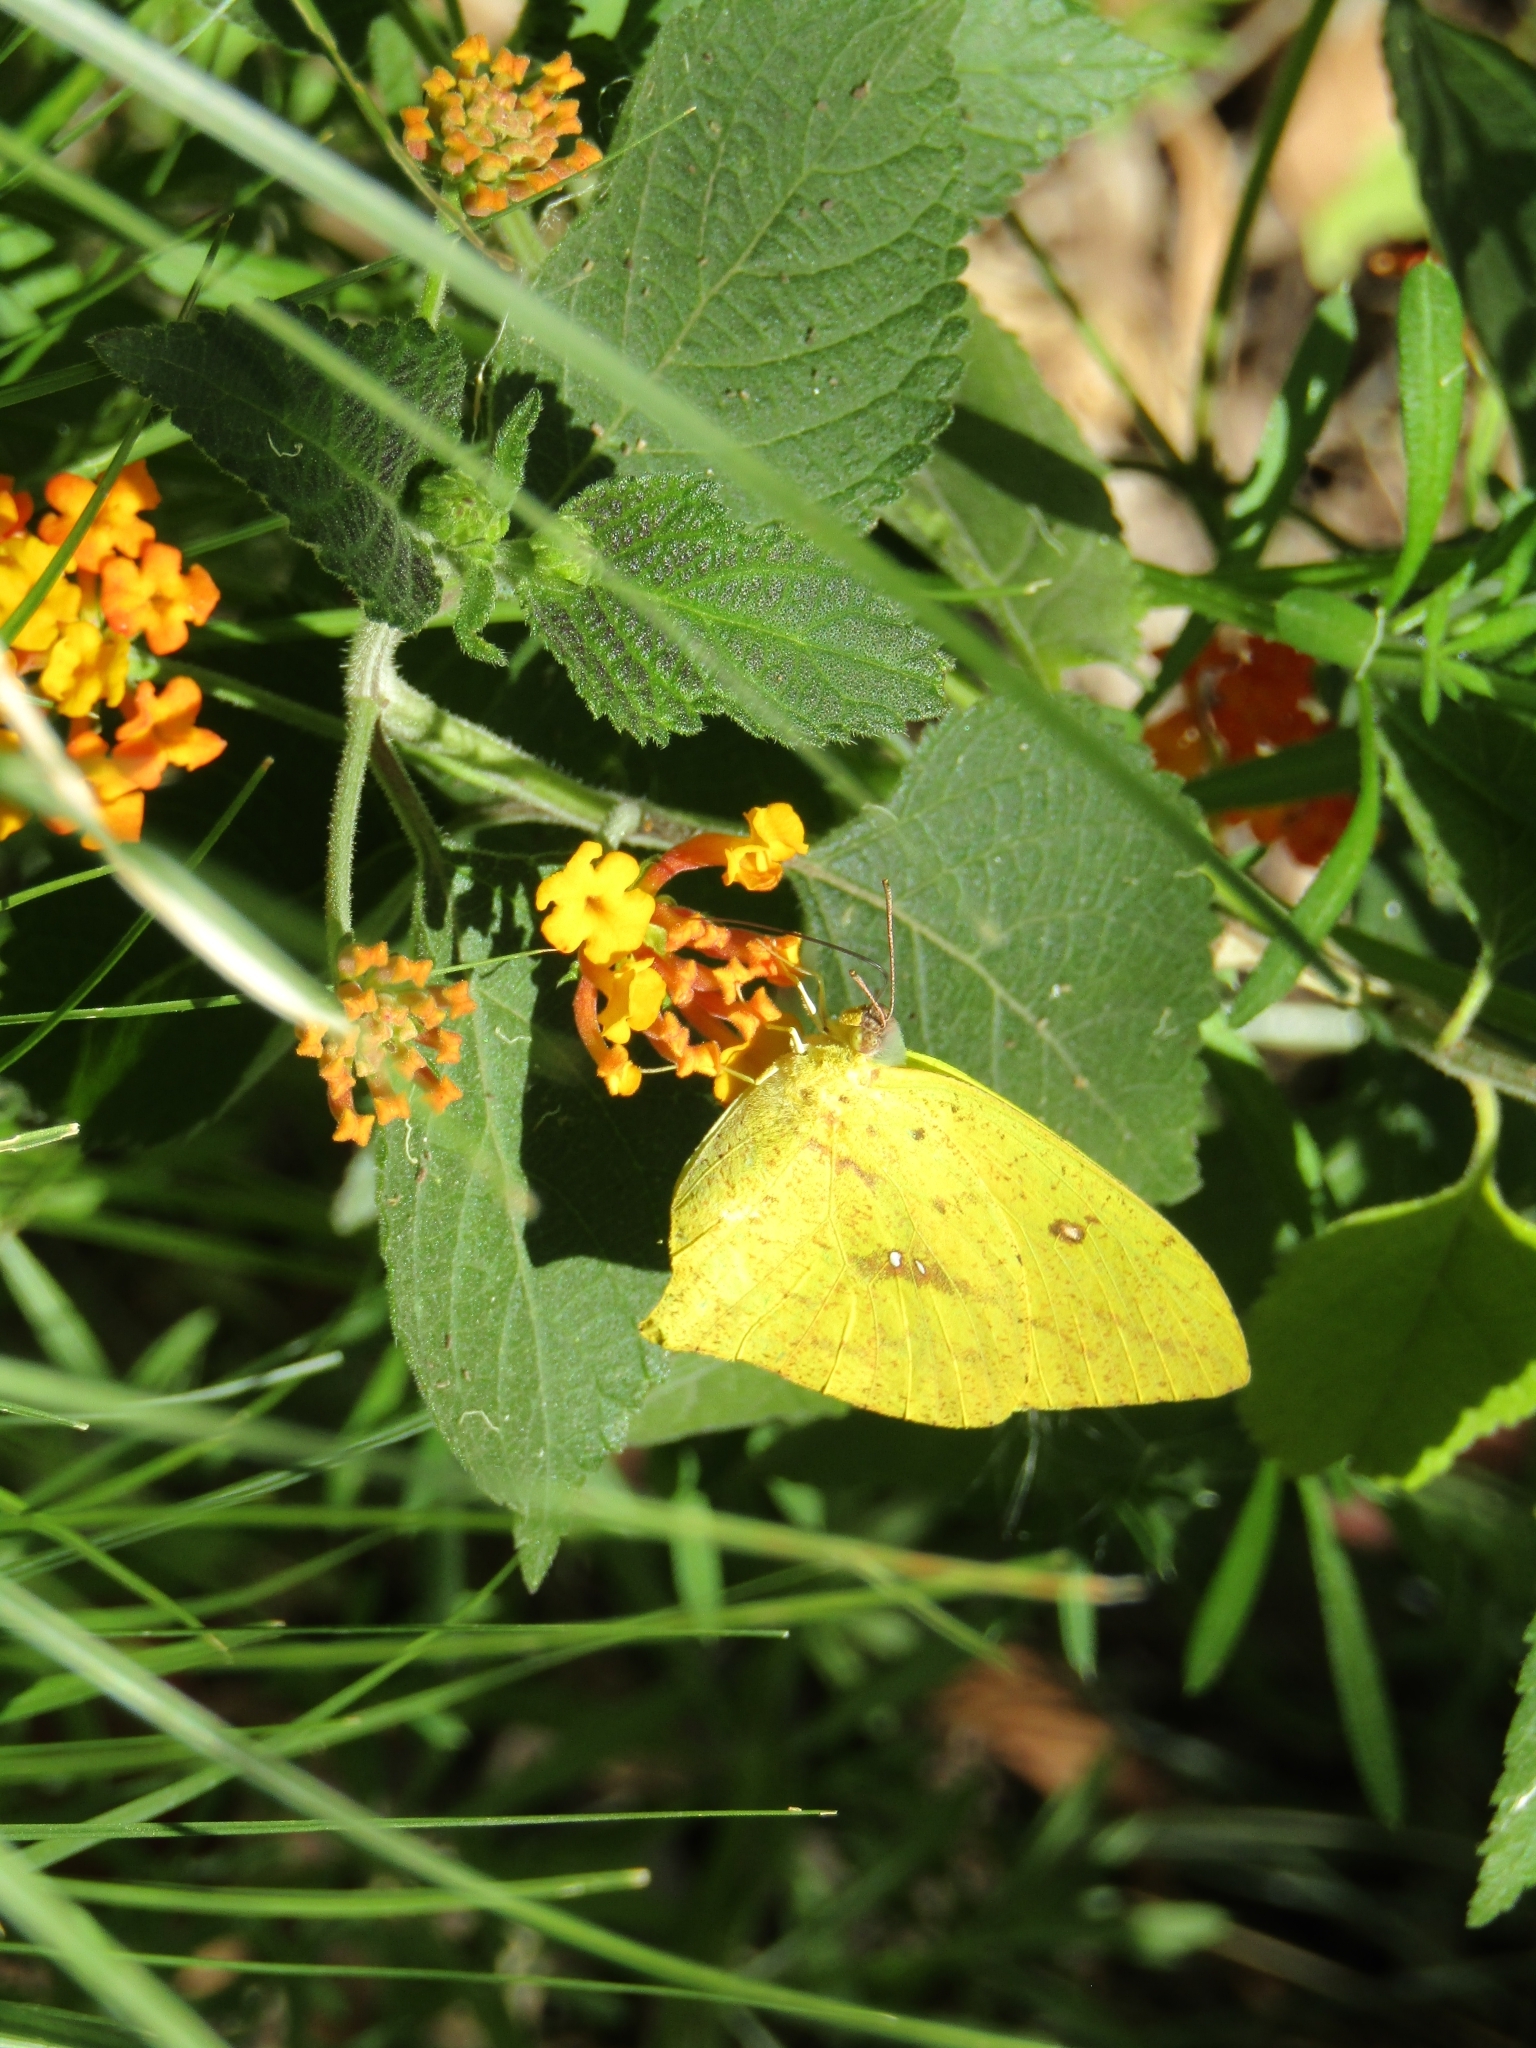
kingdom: Animalia
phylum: Arthropoda
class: Insecta
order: Lepidoptera
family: Pieridae
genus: Phoebis
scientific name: Phoebis neocypris
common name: Tailed sulphur
